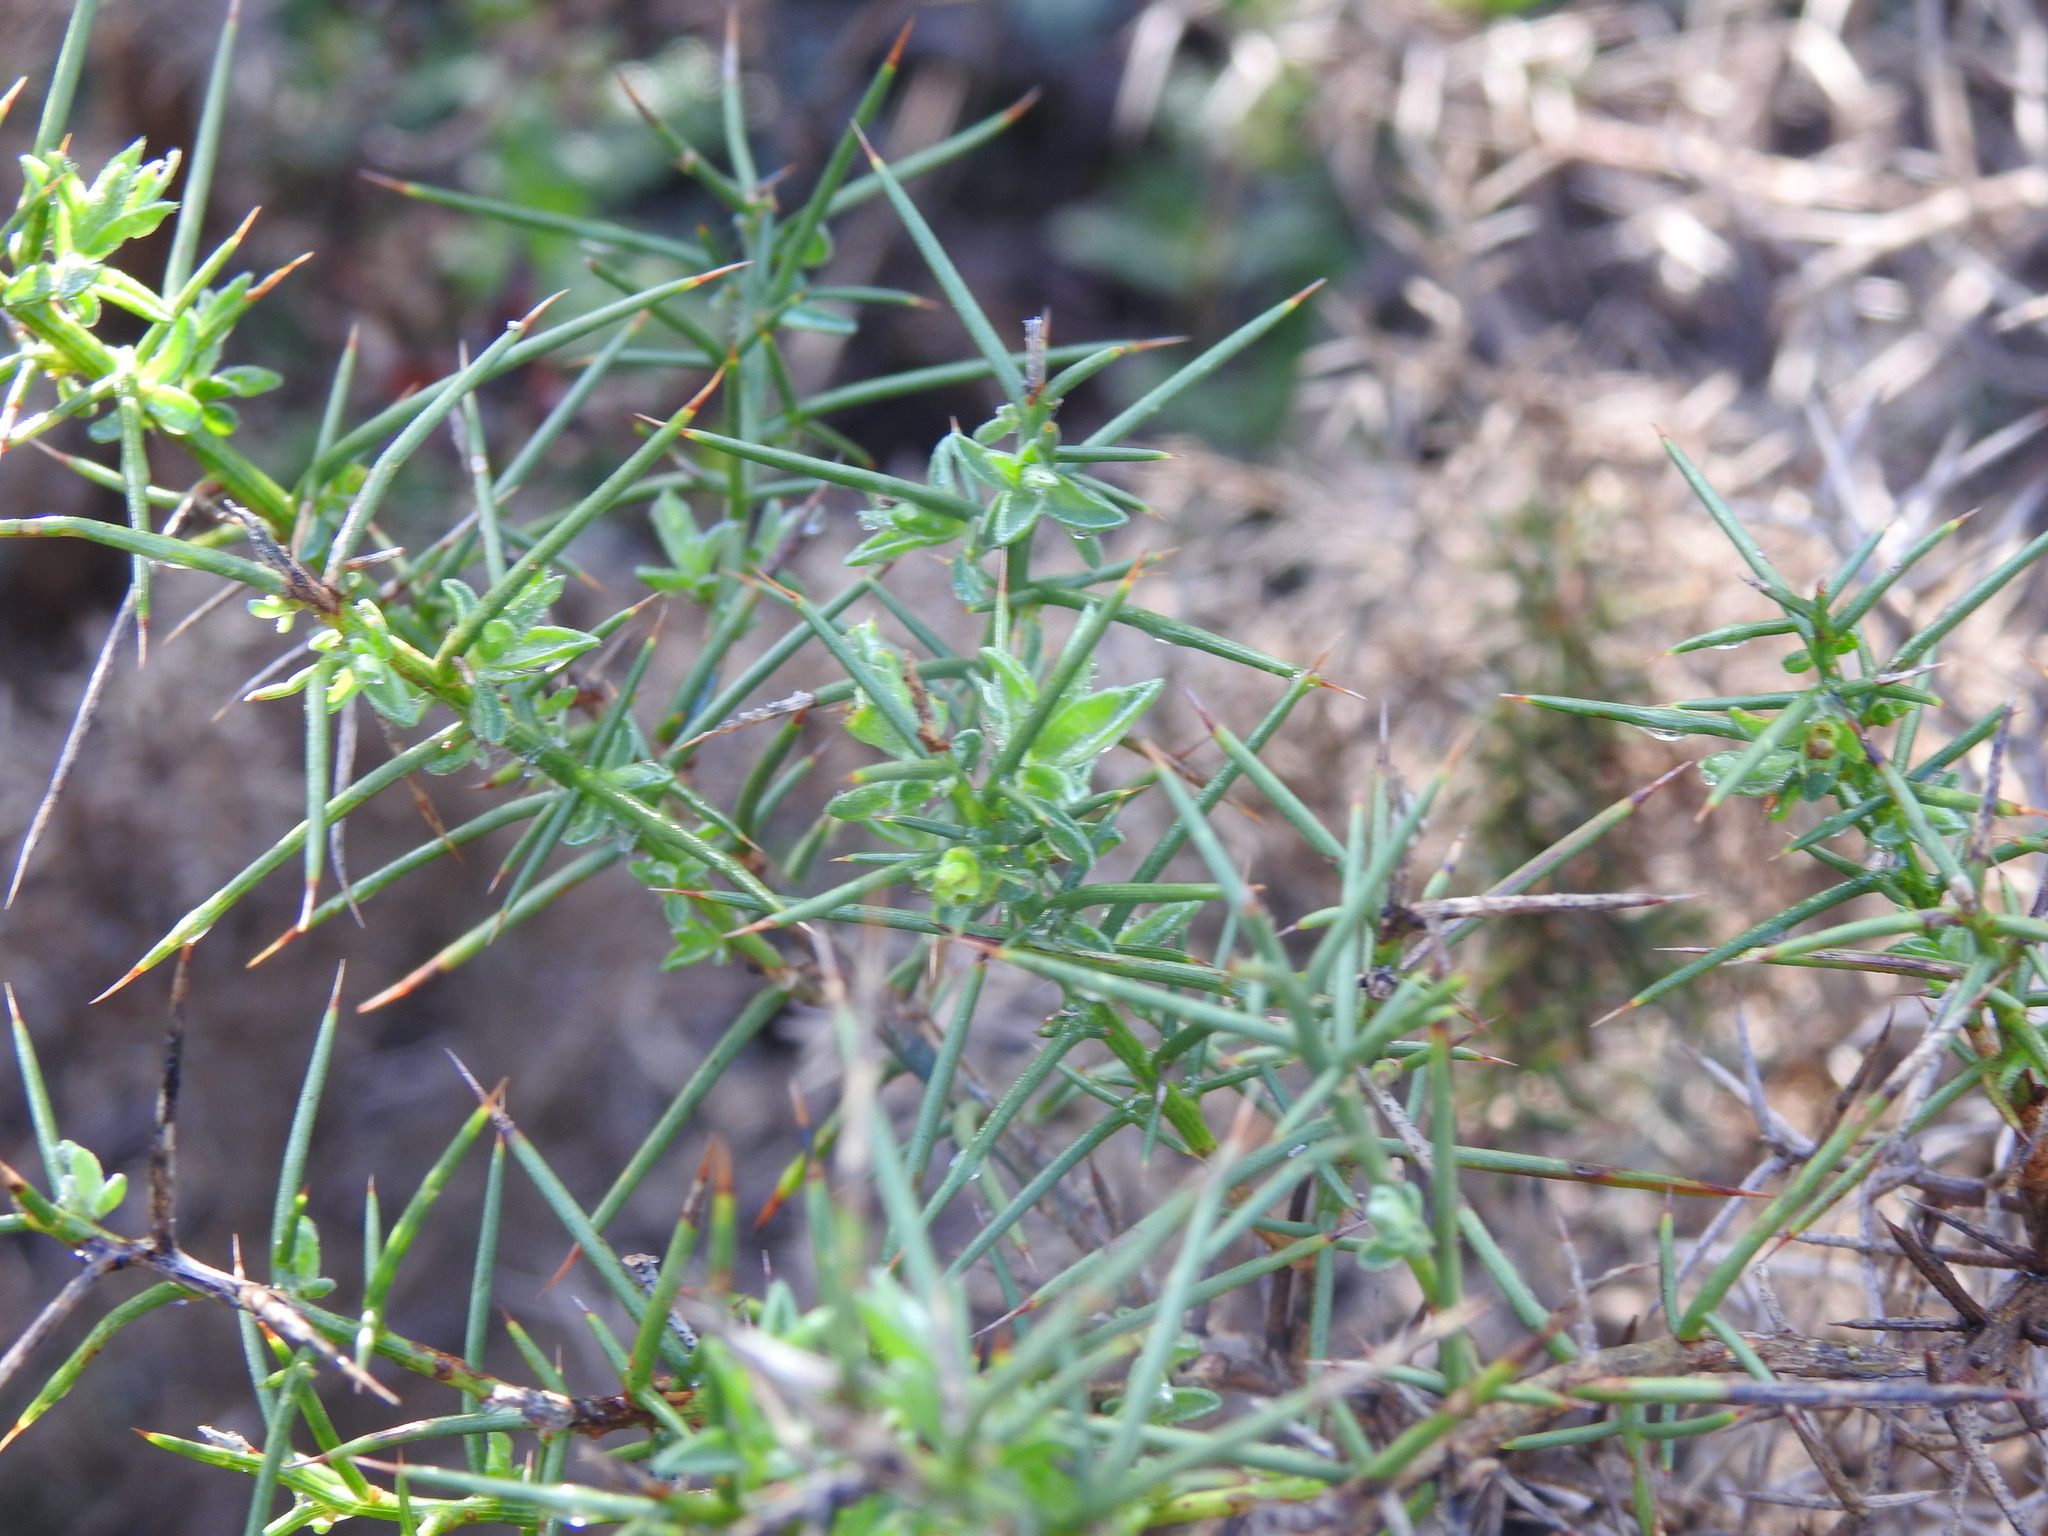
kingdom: Plantae
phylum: Tracheophyta
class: Magnoliopsida
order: Fabales
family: Fabaceae
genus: Genista
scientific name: Genista hirsuta
